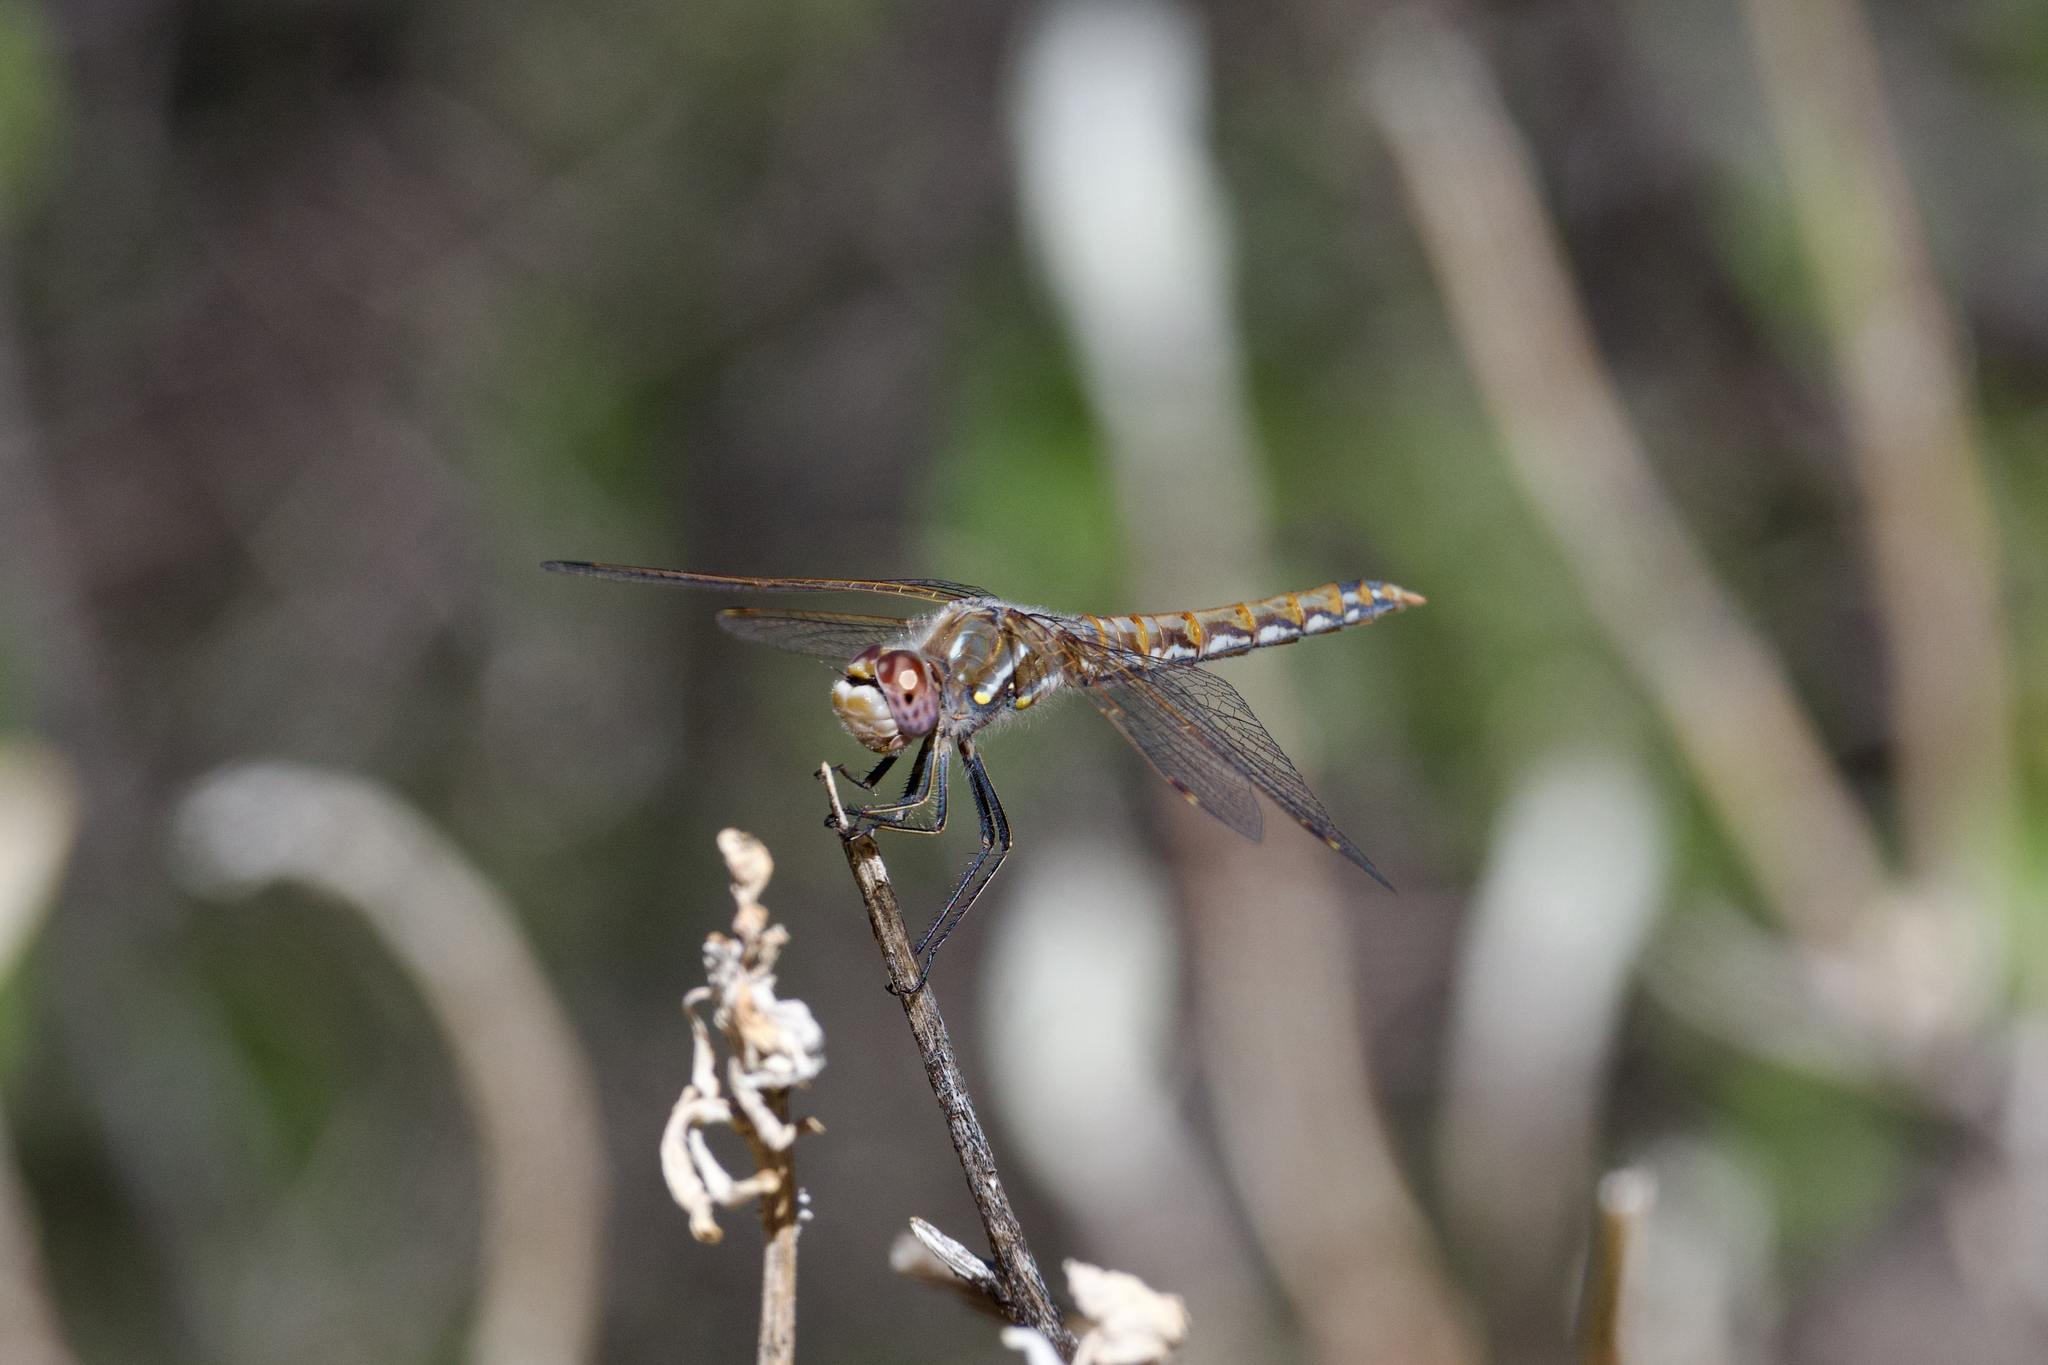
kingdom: Animalia
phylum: Arthropoda
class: Insecta
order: Odonata
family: Libellulidae
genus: Sympetrum
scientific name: Sympetrum corruptum
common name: Variegated meadowhawk
